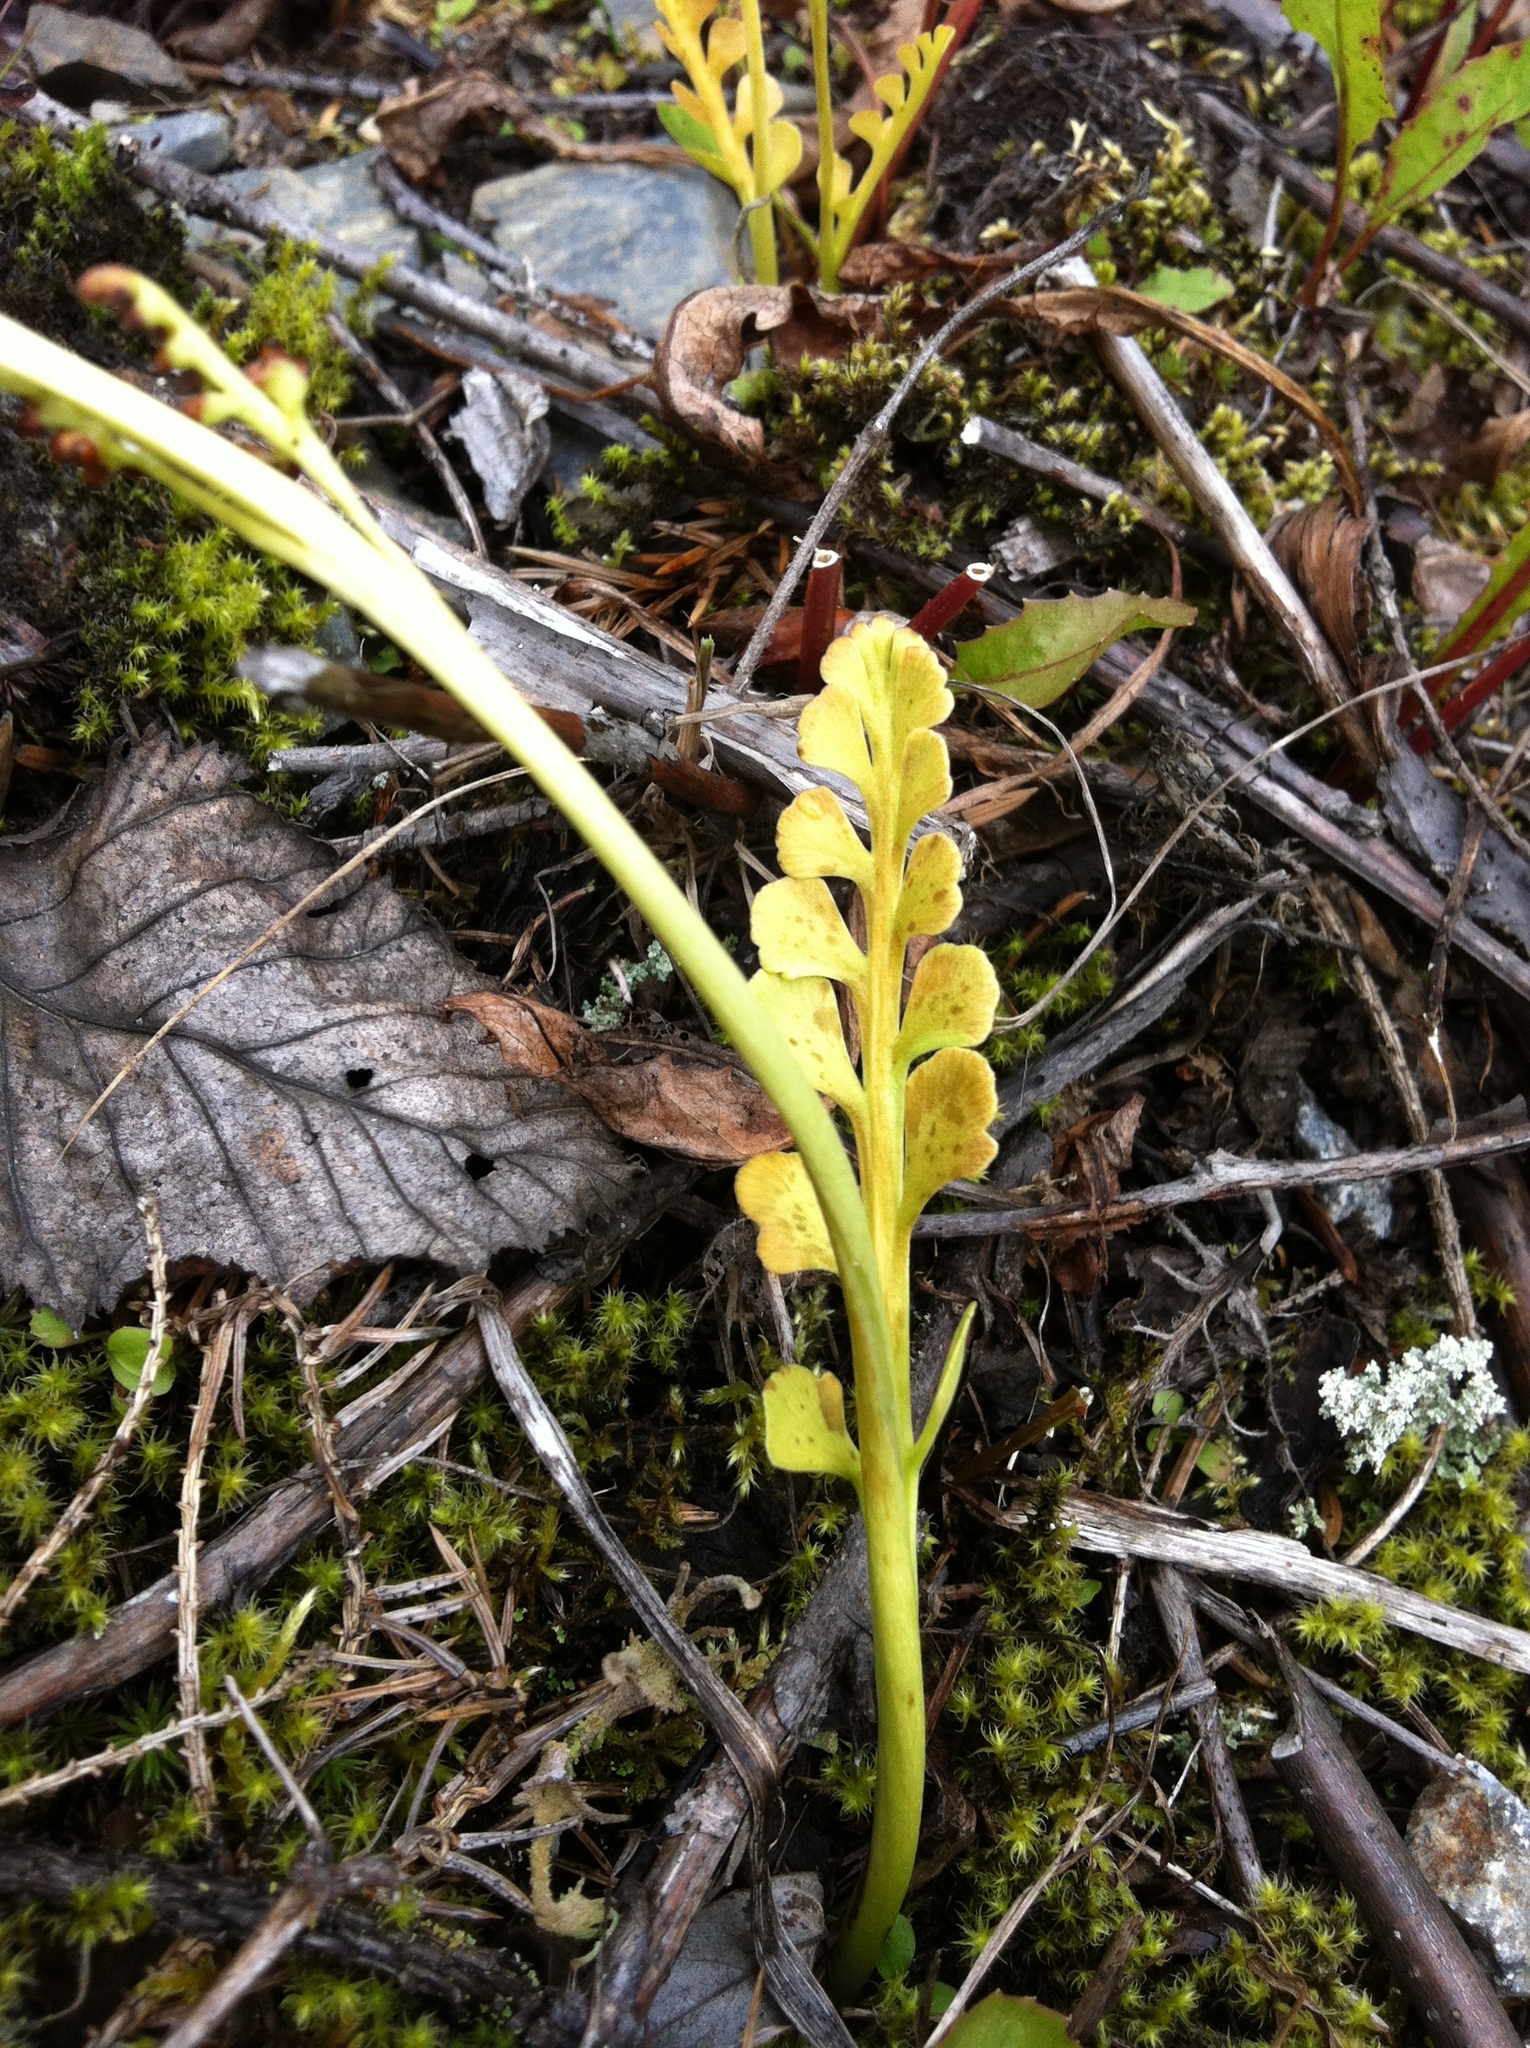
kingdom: Plantae
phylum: Tracheophyta
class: Polypodiopsida
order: Ophioglossales
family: Ophioglossaceae
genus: Botrychium
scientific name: Botrychium minganense
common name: Mingan grapefern
